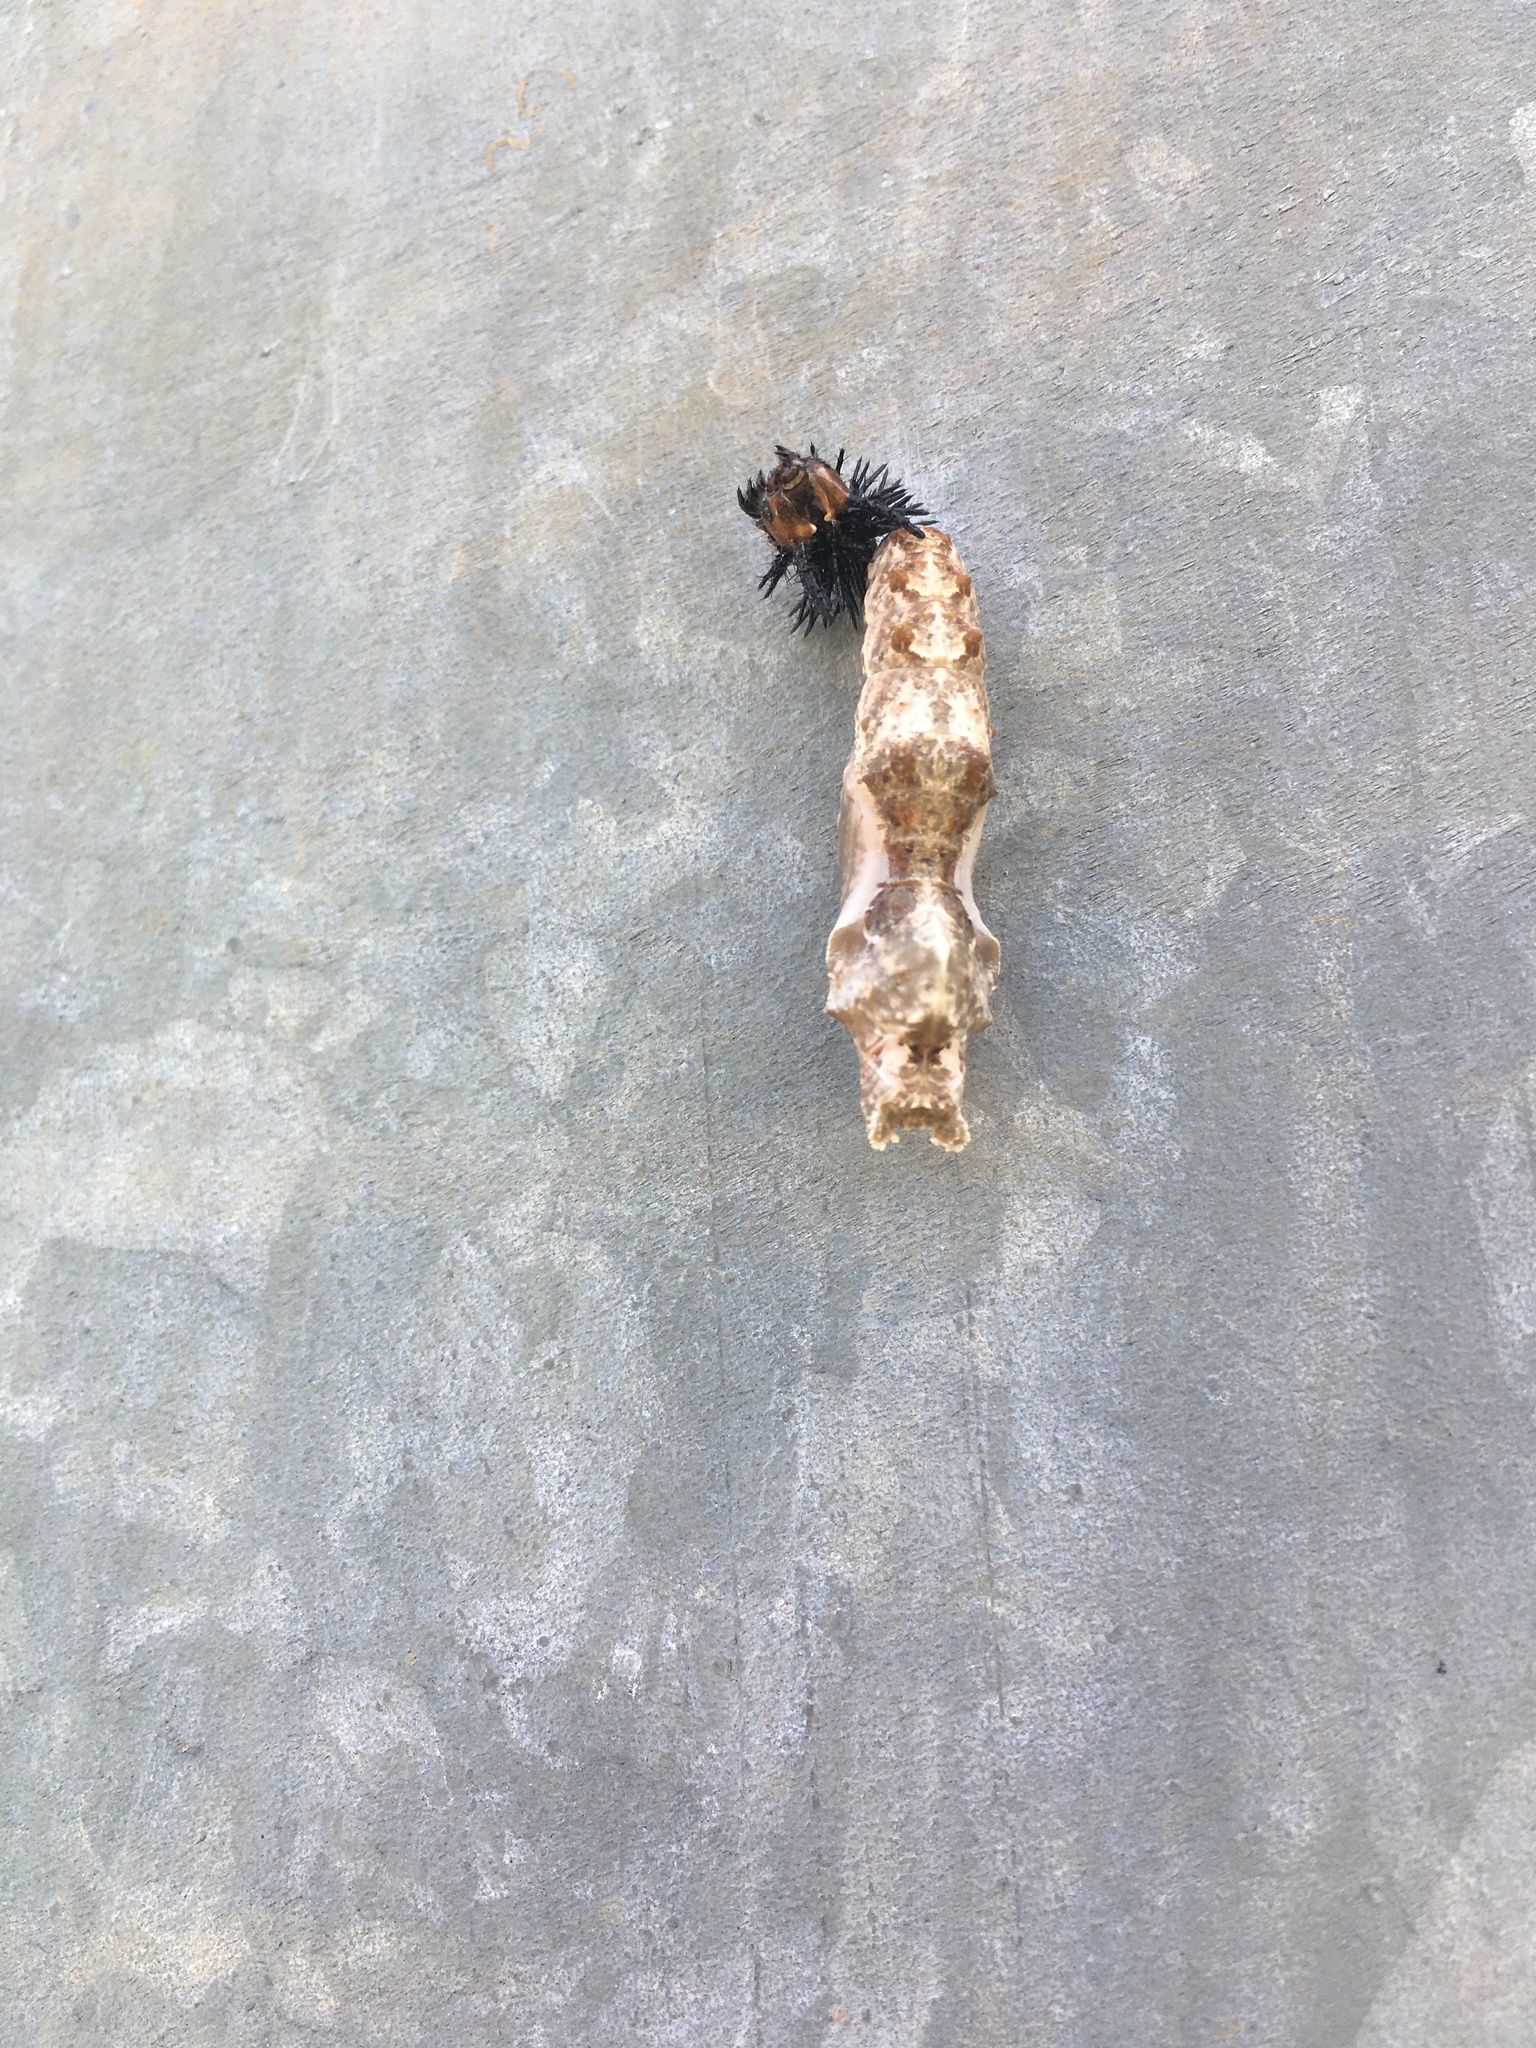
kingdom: Animalia
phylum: Arthropoda
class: Insecta
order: Lepidoptera
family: Nymphalidae
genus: Dione
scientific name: Dione vanillae
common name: Gulf fritillary
